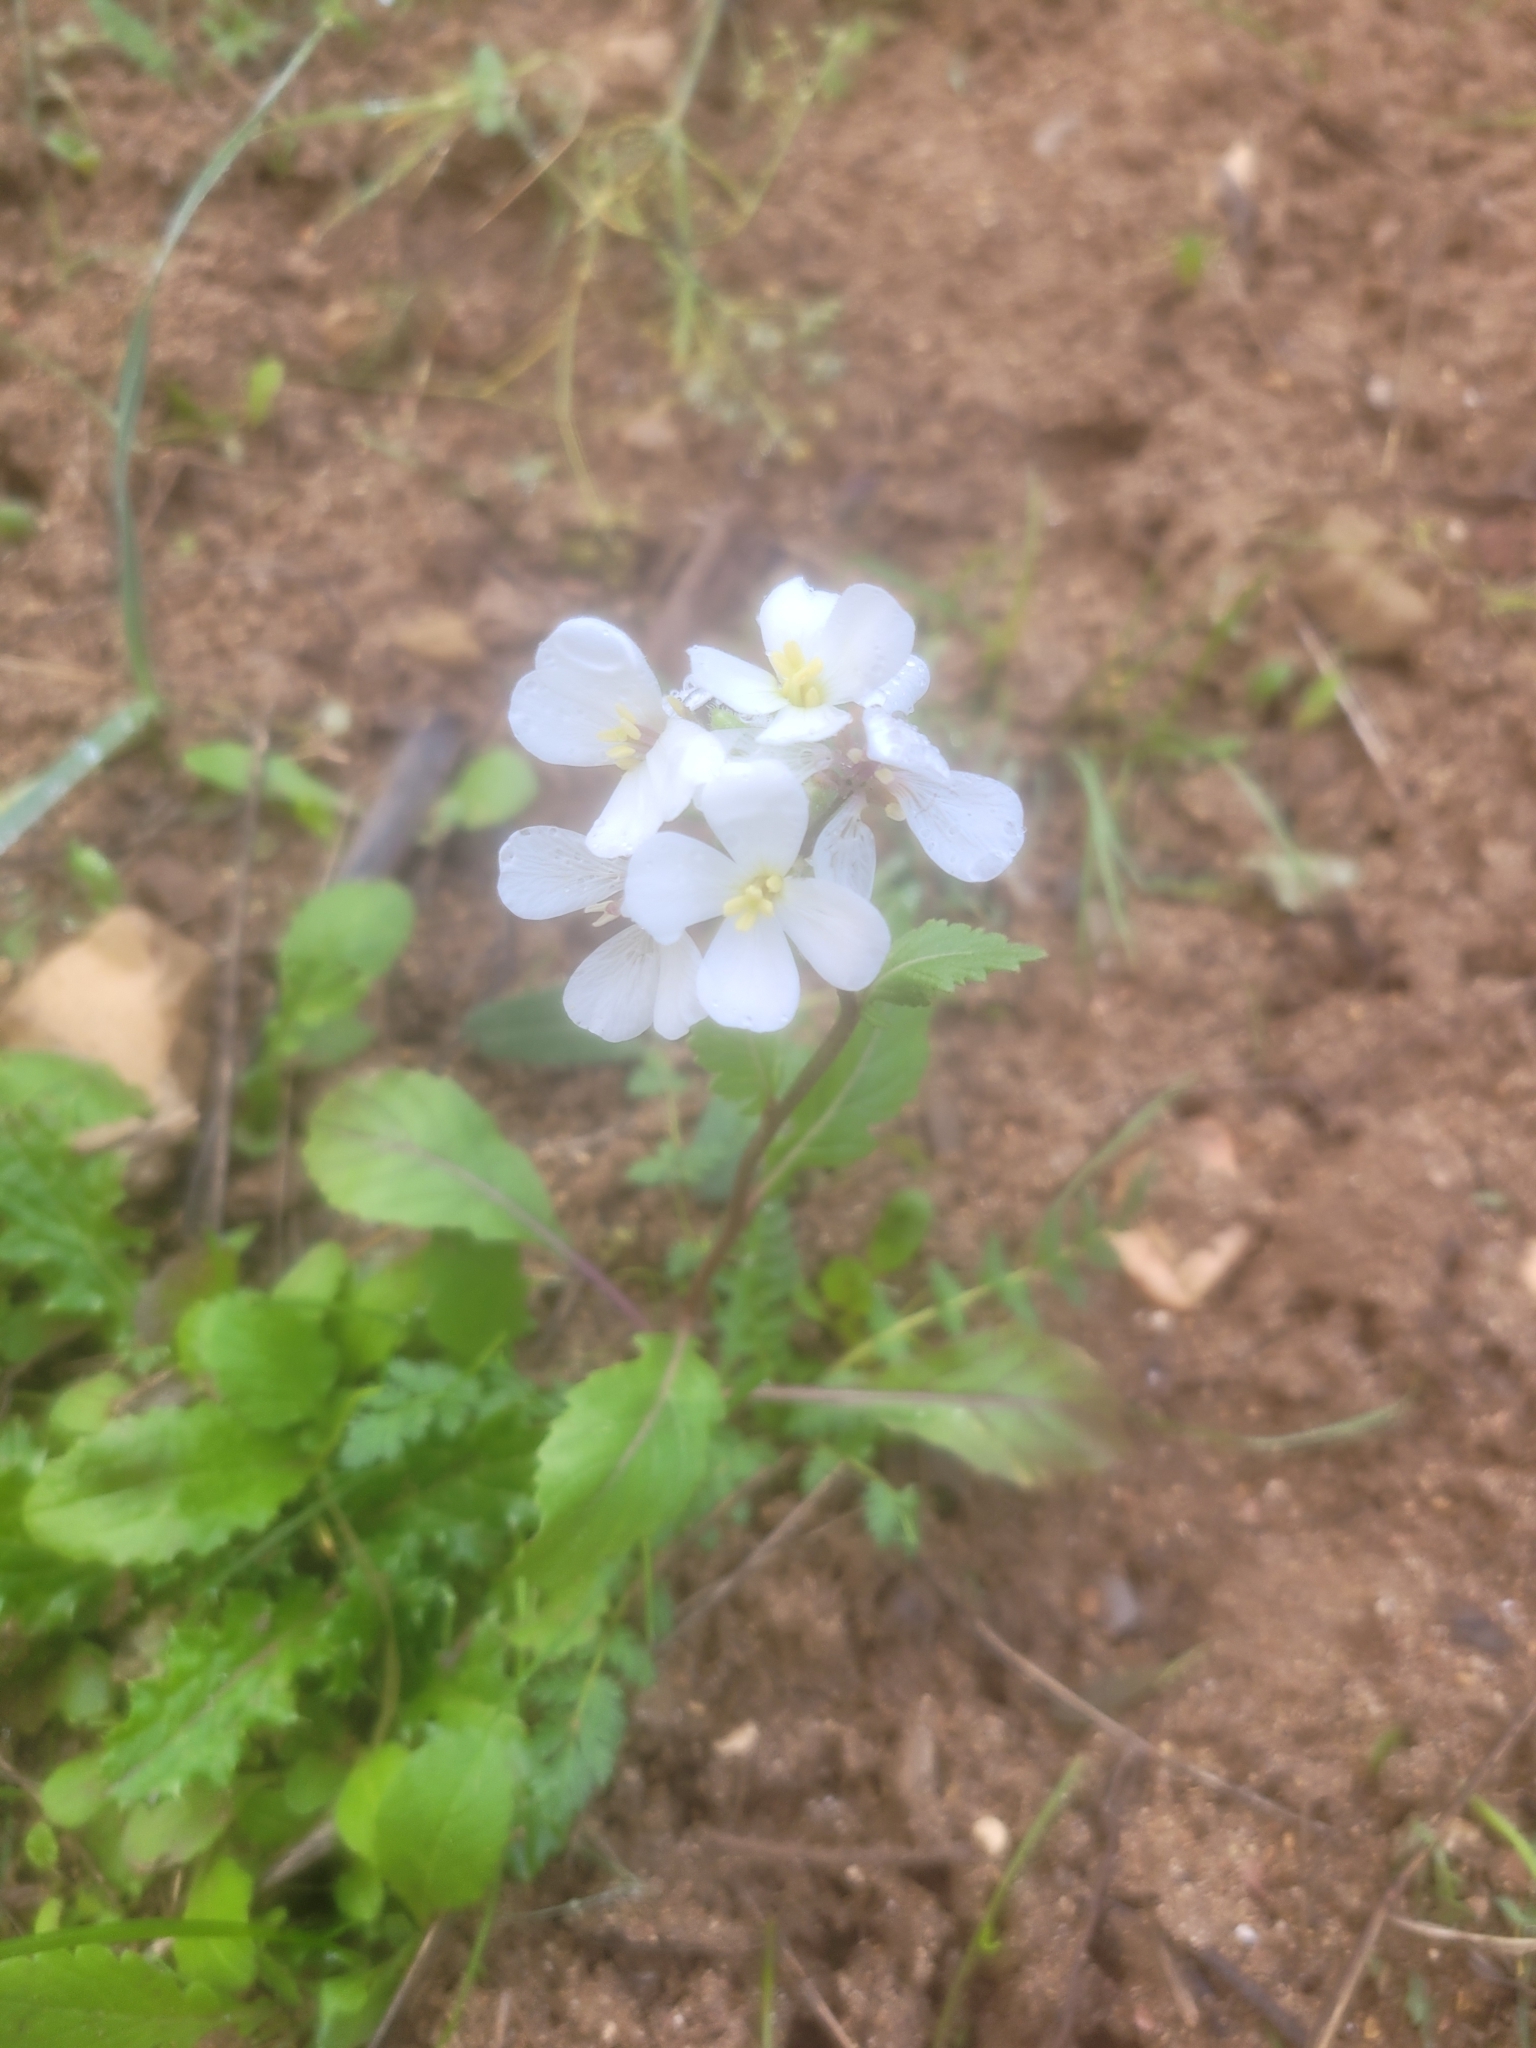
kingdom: Plantae
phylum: Tracheophyta
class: Magnoliopsida
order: Brassicales
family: Brassicaceae
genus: Diplotaxis
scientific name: Diplotaxis erucoides
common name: White rocket
